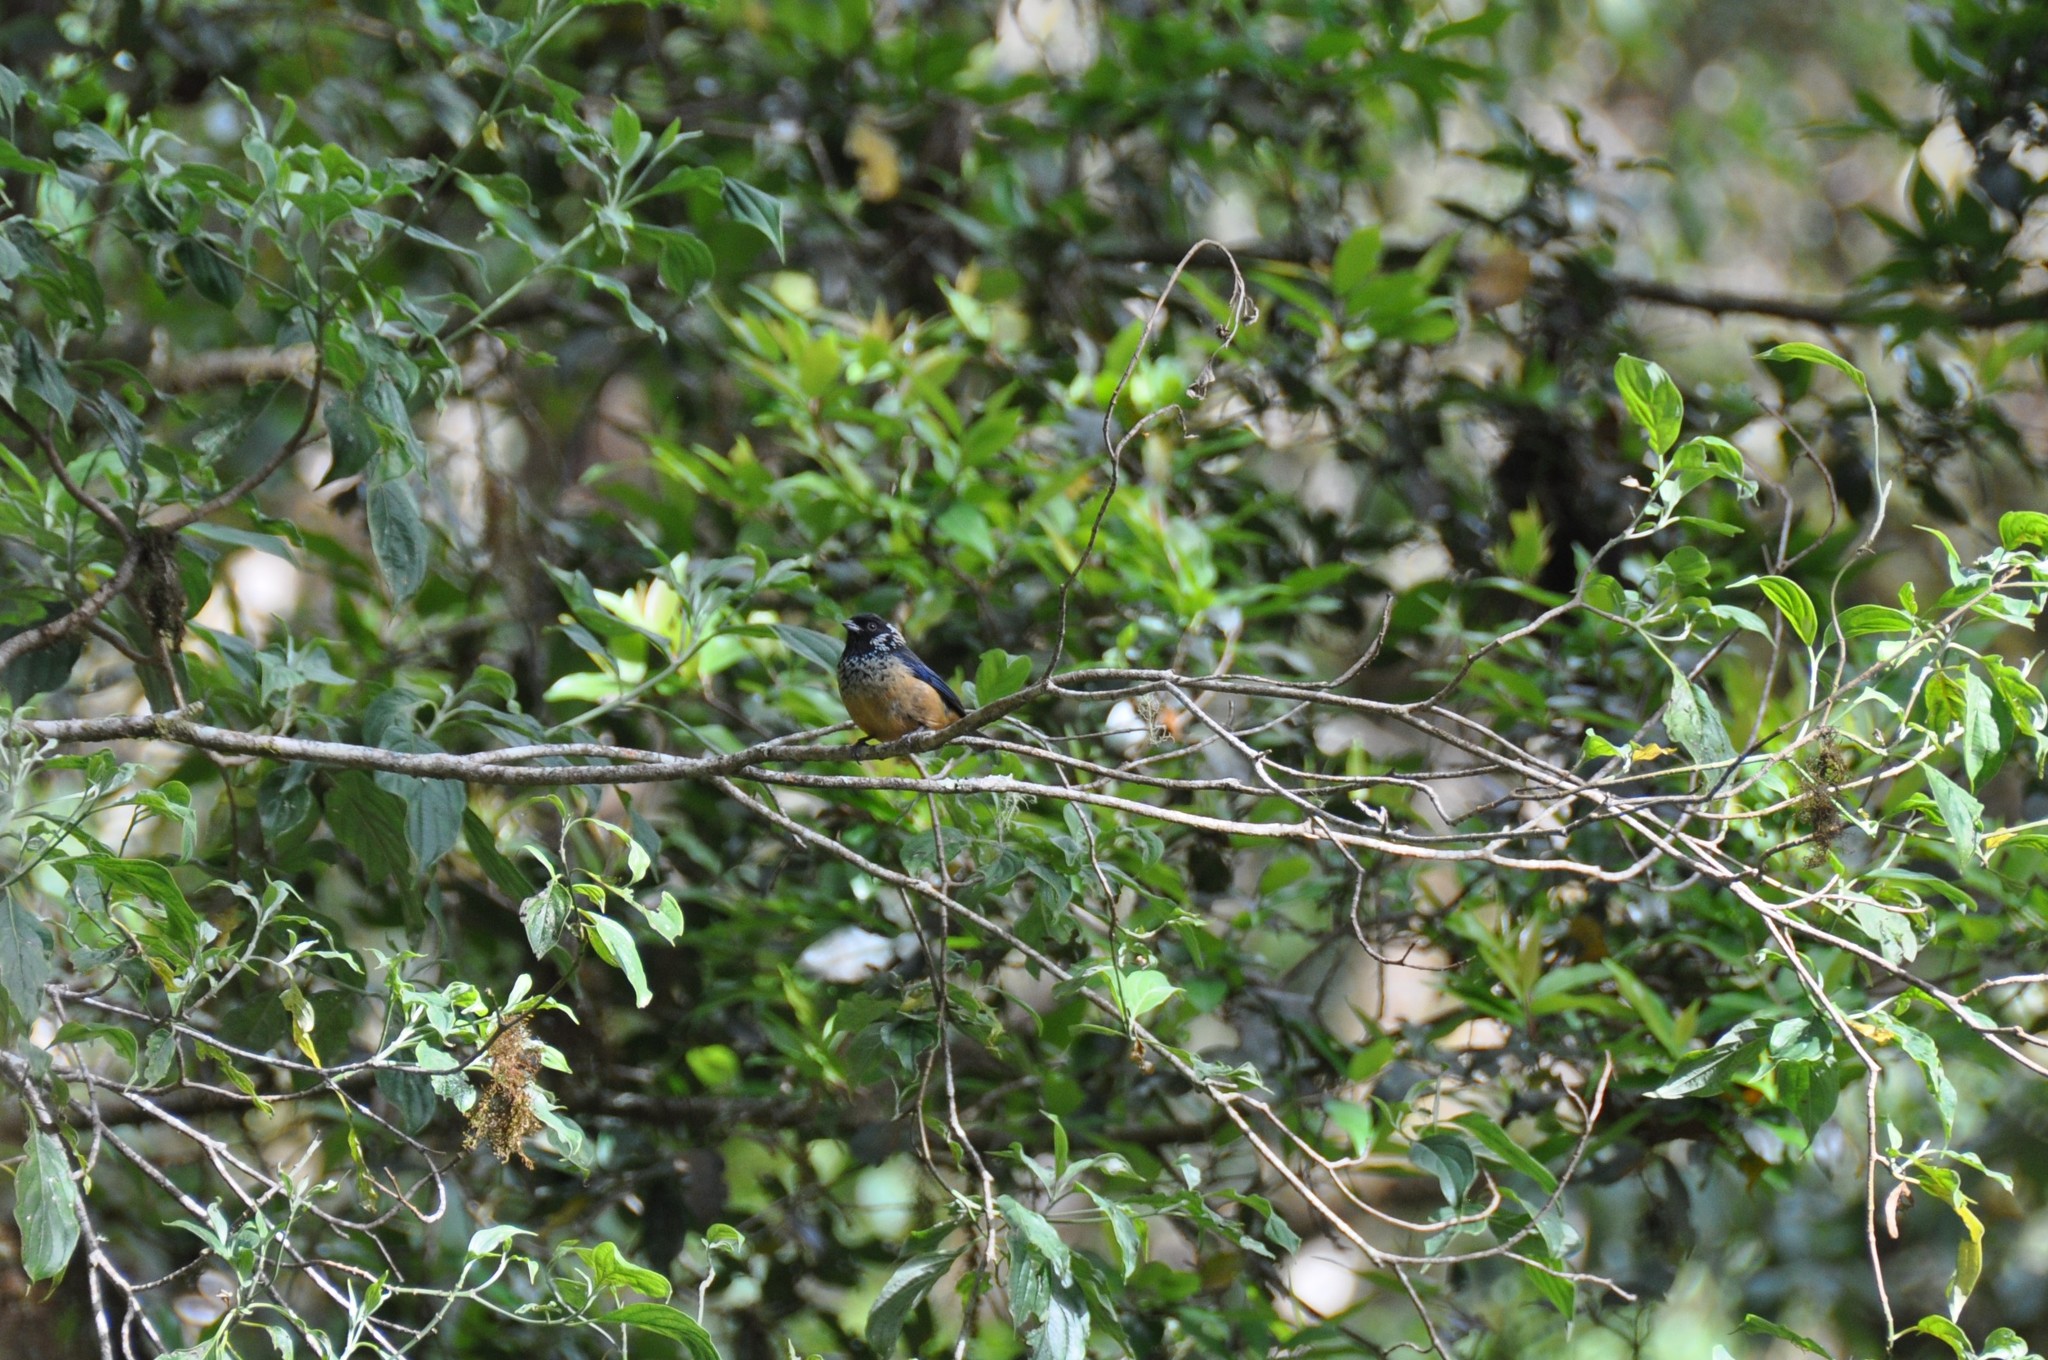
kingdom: Animalia
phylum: Chordata
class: Aves
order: Passeriformes
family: Thraupidae
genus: Tangara
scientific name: Tangara dowii
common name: Spangle-cheeked tanager
